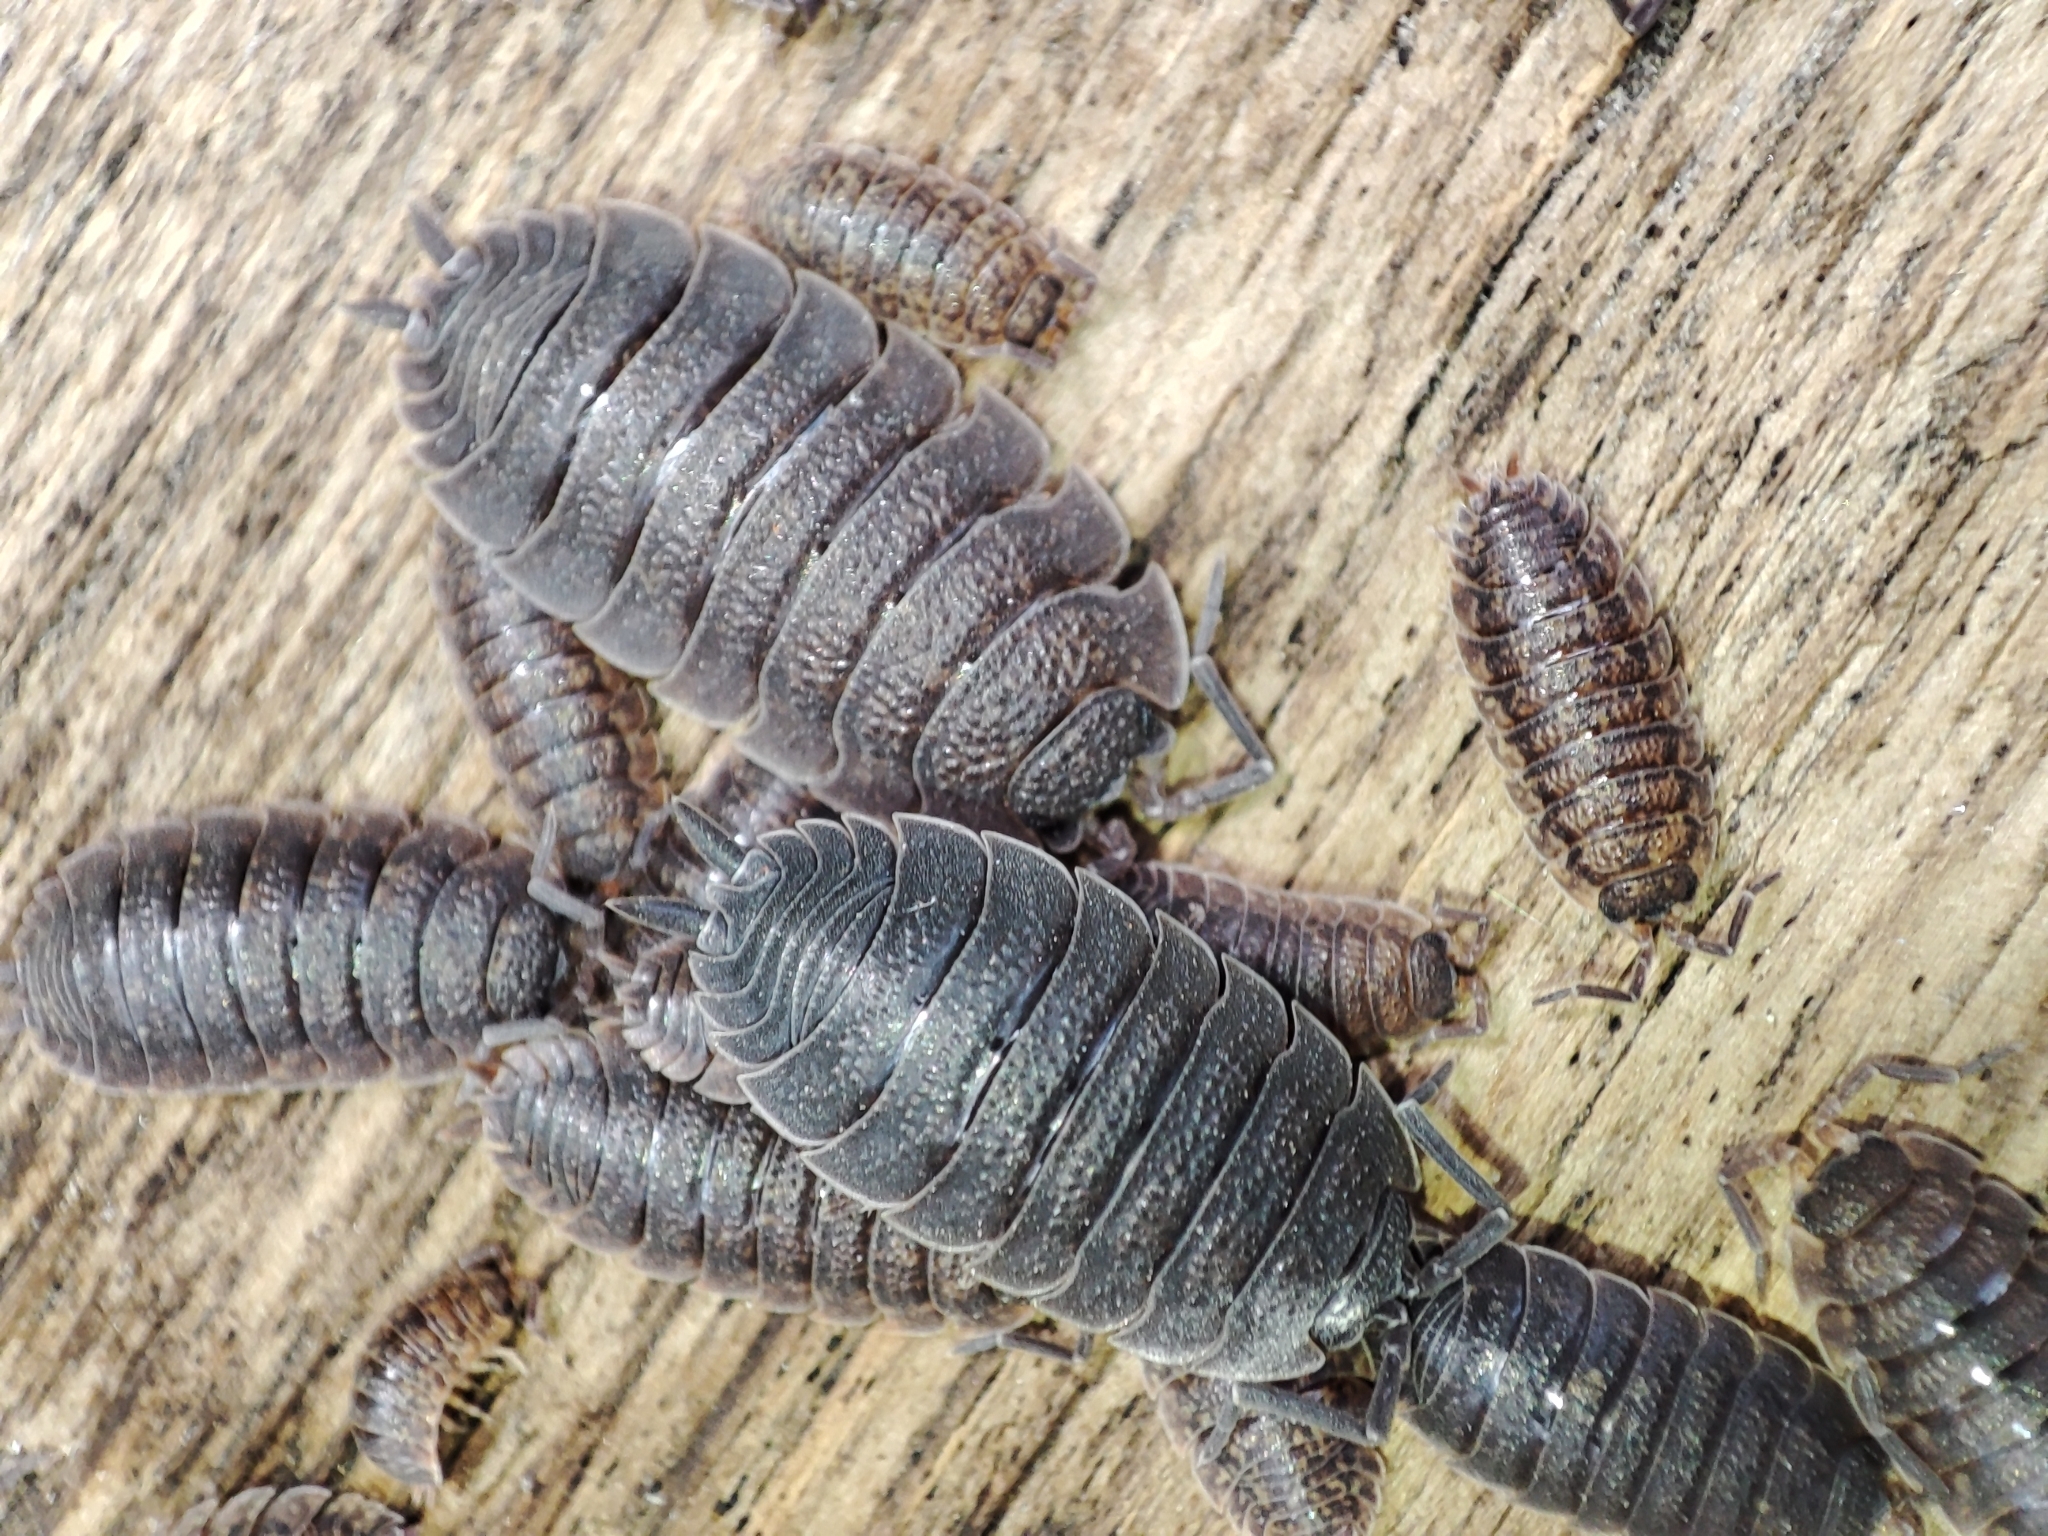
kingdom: Animalia
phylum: Arthropoda
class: Malacostraca
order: Isopoda
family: Porcellionidae
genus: Porcellio
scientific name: Porcellio scaber
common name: Common rough woodlouse
